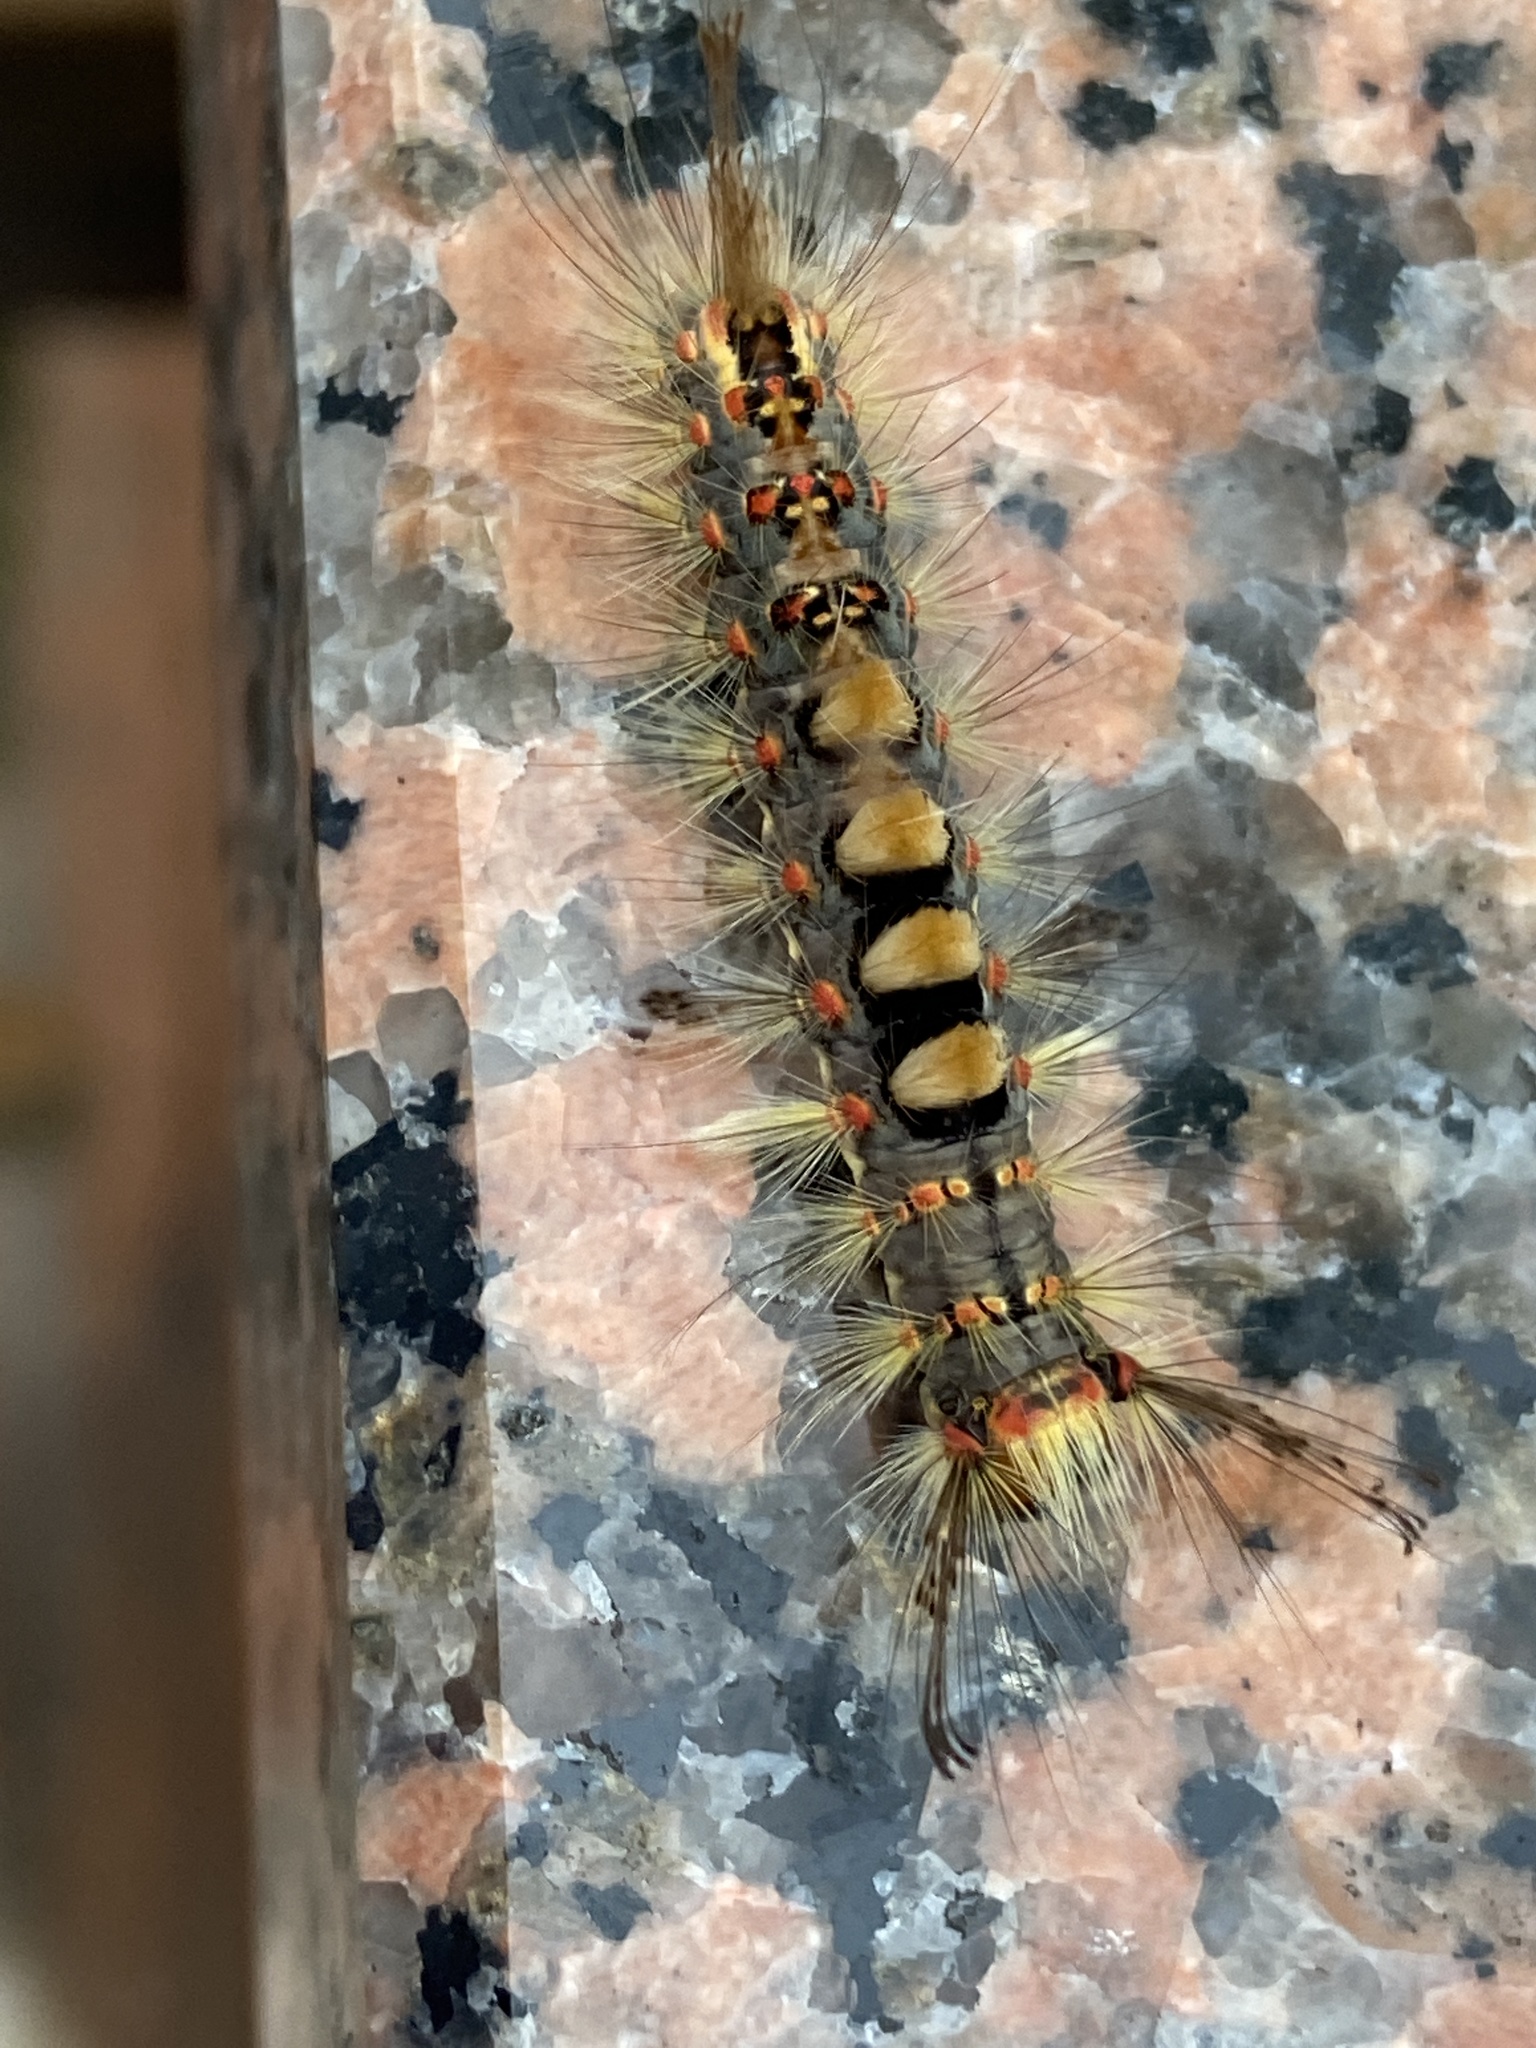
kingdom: Animalia
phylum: Arthropoda
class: Insecta
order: Lepidoptera
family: Erebidae
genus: Orgyia
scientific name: Orgyia antiqua
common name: Vapourer
